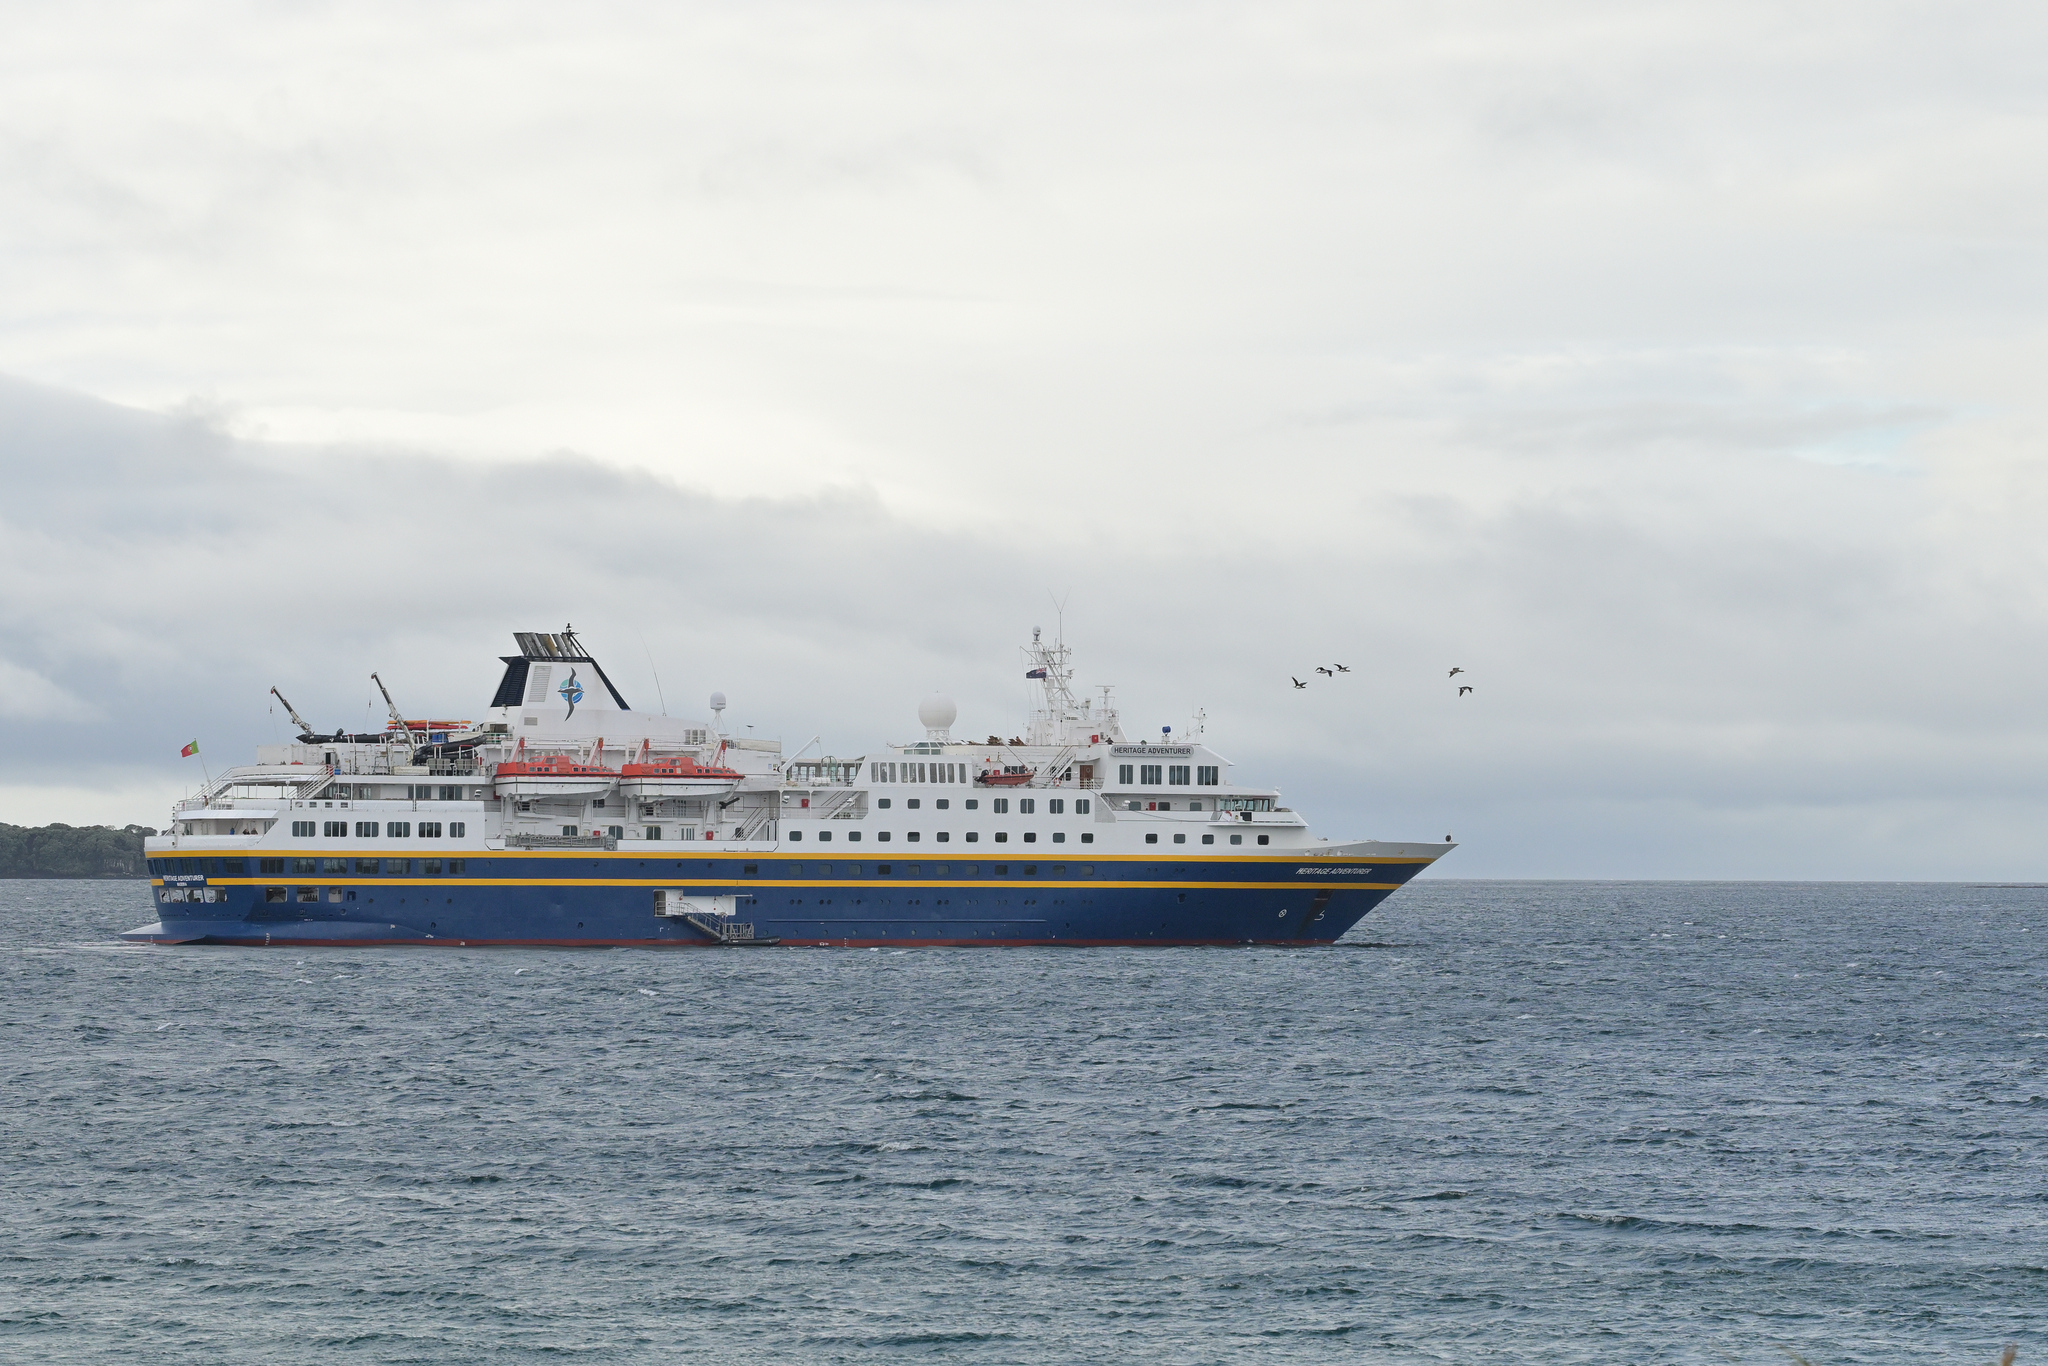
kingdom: Animalia
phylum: Chordata
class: Aves
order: Suliformes
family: Phalacrocoracidae
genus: Leucocarbo
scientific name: Leucocarbo colensoi
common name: Auckland shag
